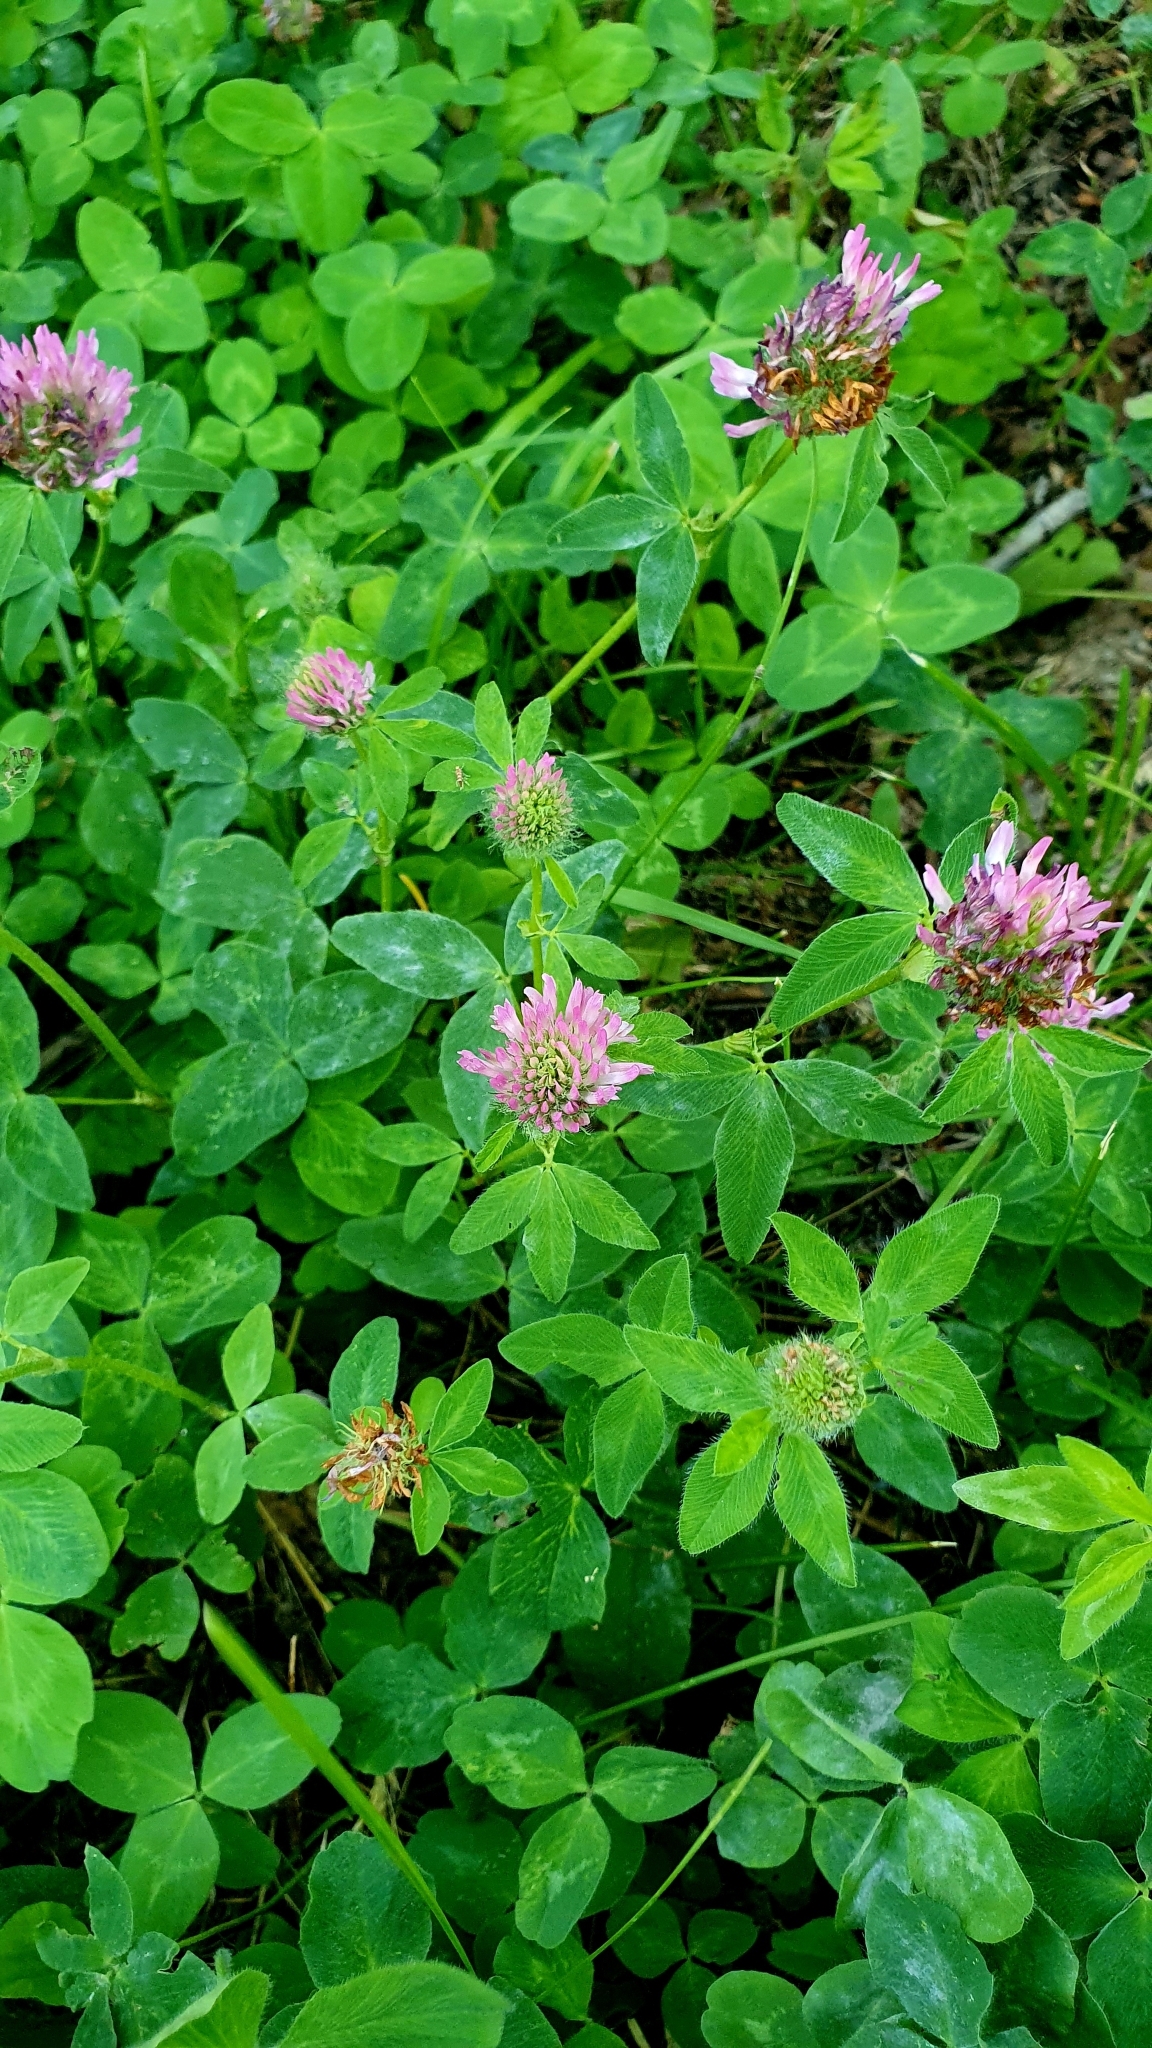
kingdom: Plantae
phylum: Tracheophyta
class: Magnoliopsida
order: Fabales
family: Fabaceae
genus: Trifolium
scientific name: Trifolium pratense
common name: Red clover
